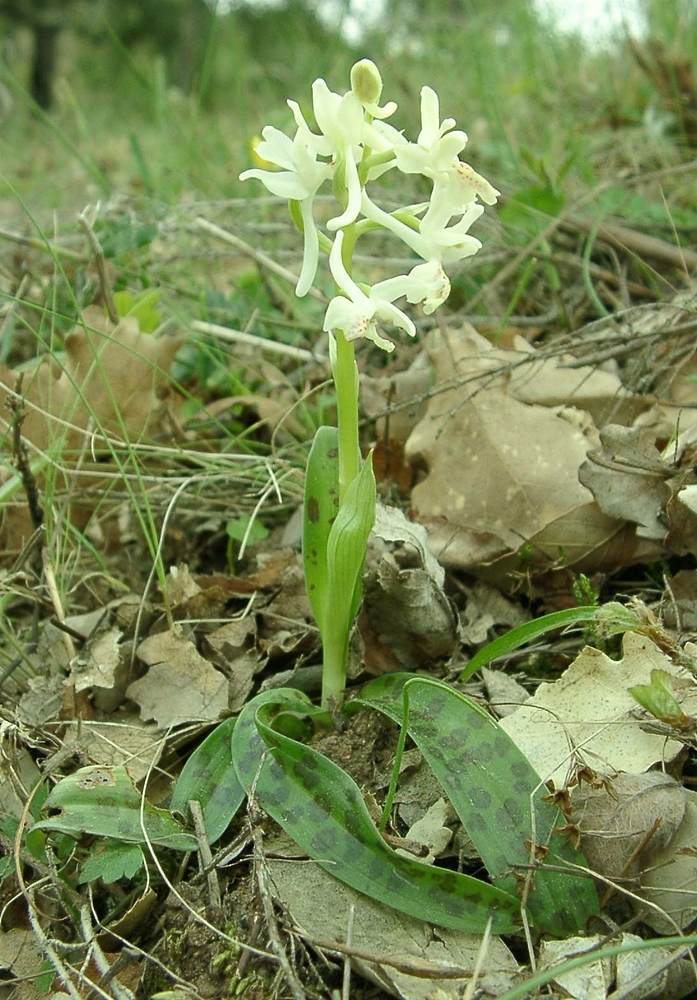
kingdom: Plantae
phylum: Tracheophyta
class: Liliopsida
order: Asparagales
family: Orchidaceae
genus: Orchis
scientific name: Orchis provincialis
